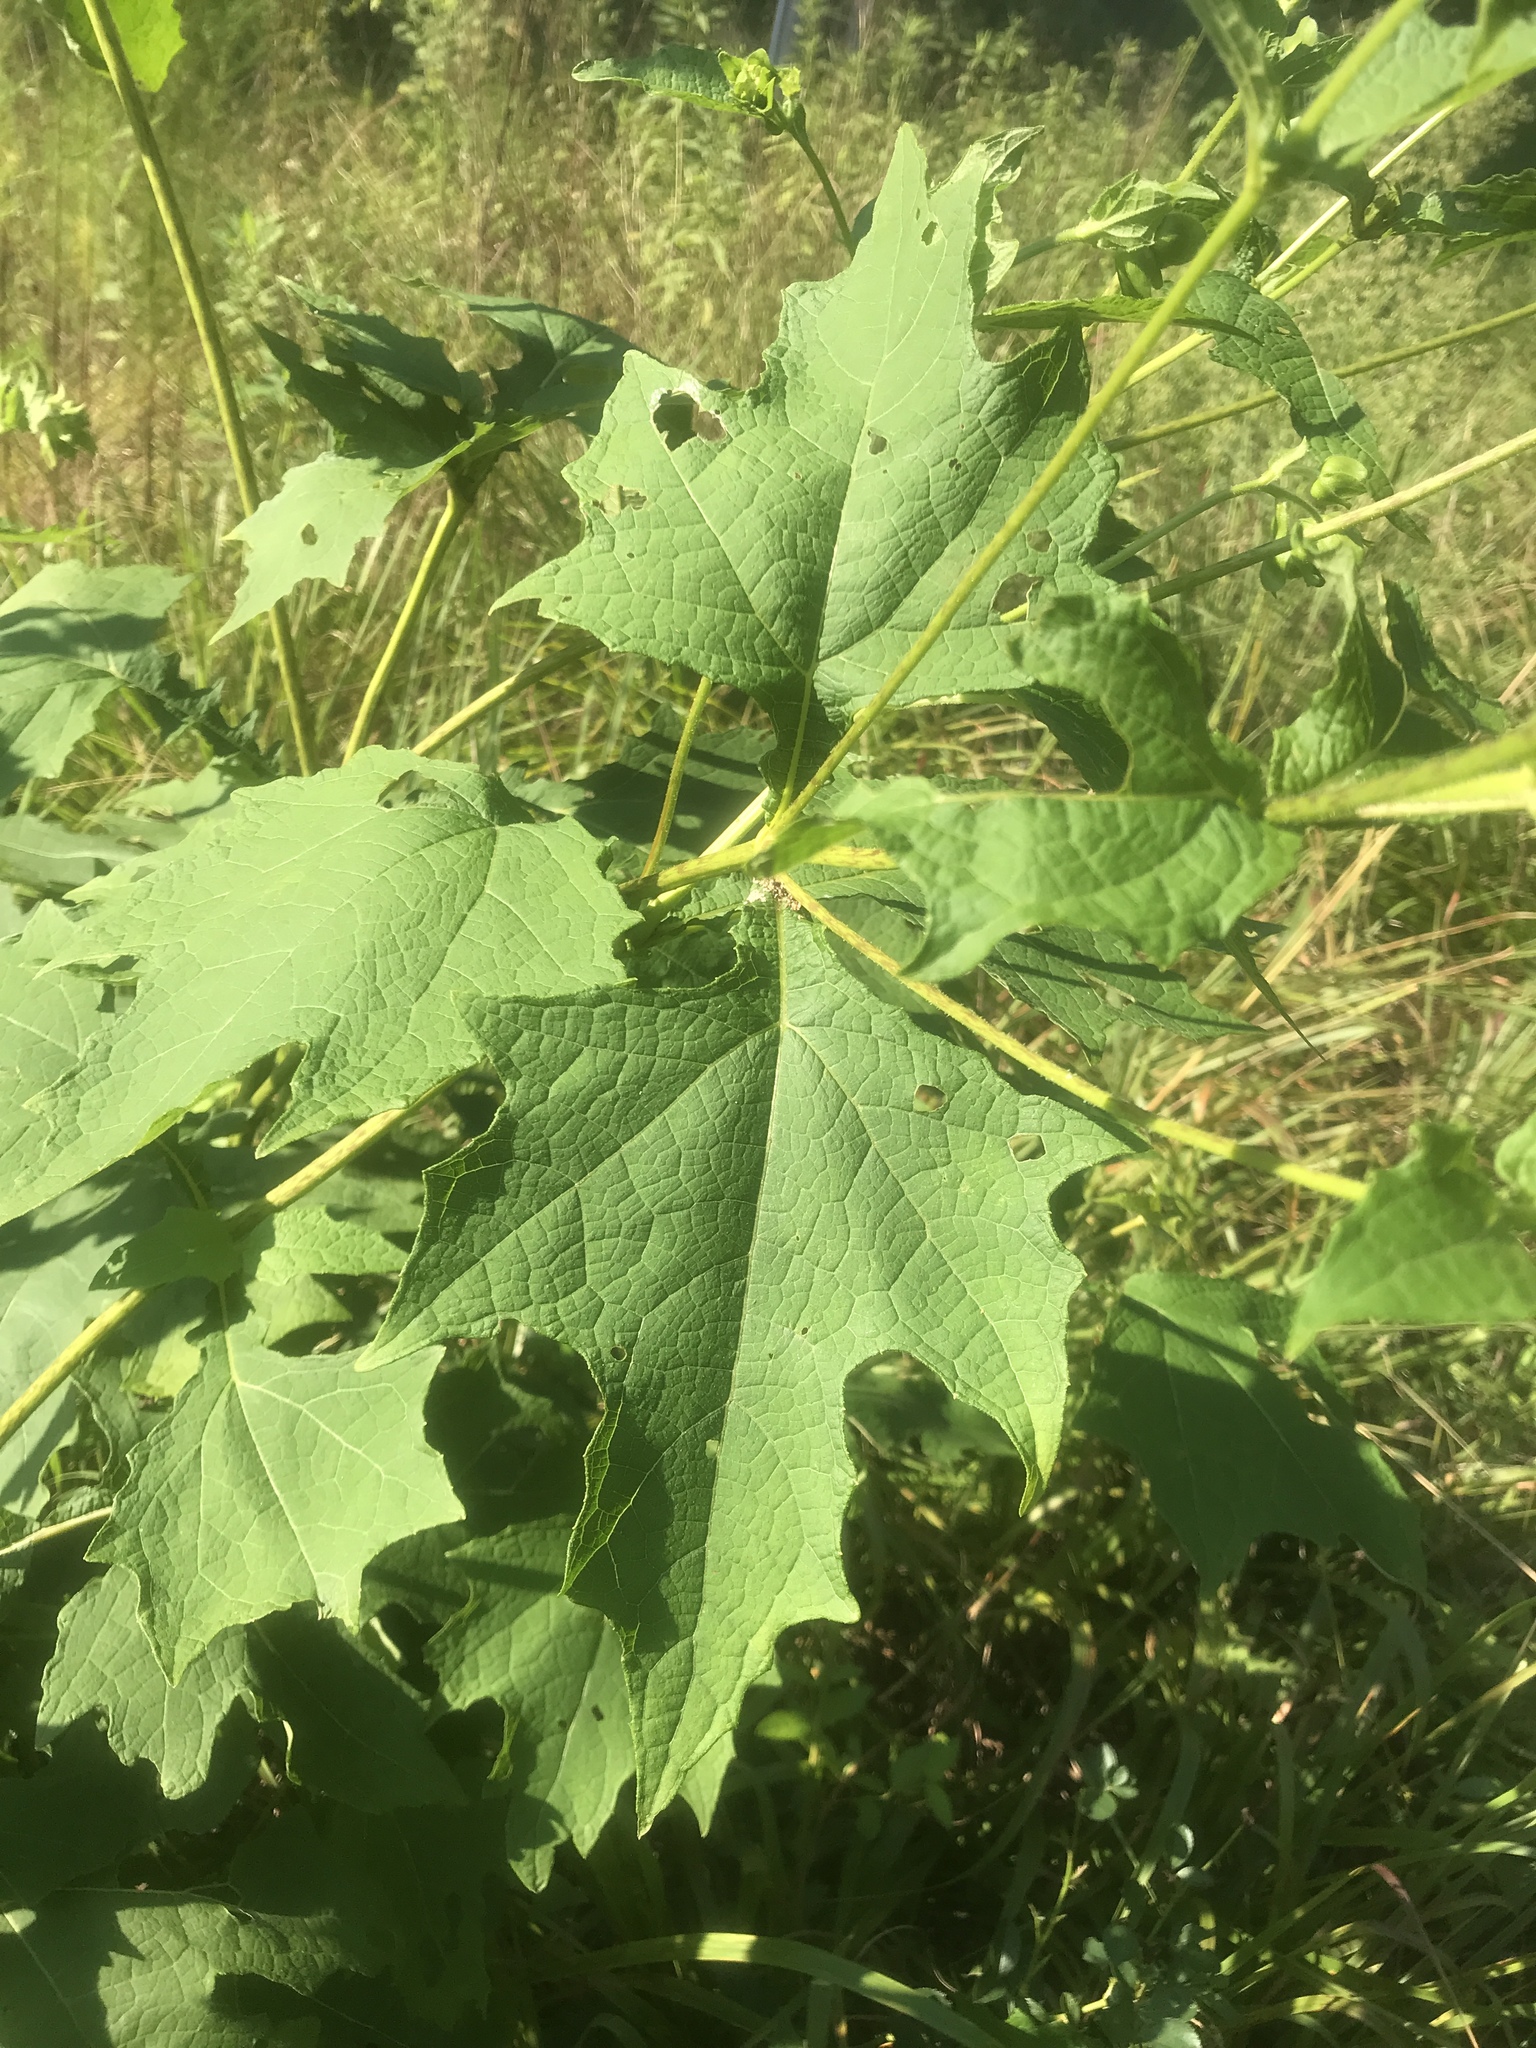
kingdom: Plantae
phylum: Tracheophyta
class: Magnoliopsida
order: Asterales
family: Asteraceae
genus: Smallanthus
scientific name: Smallanthus uvedalia
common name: Bear's-foot
